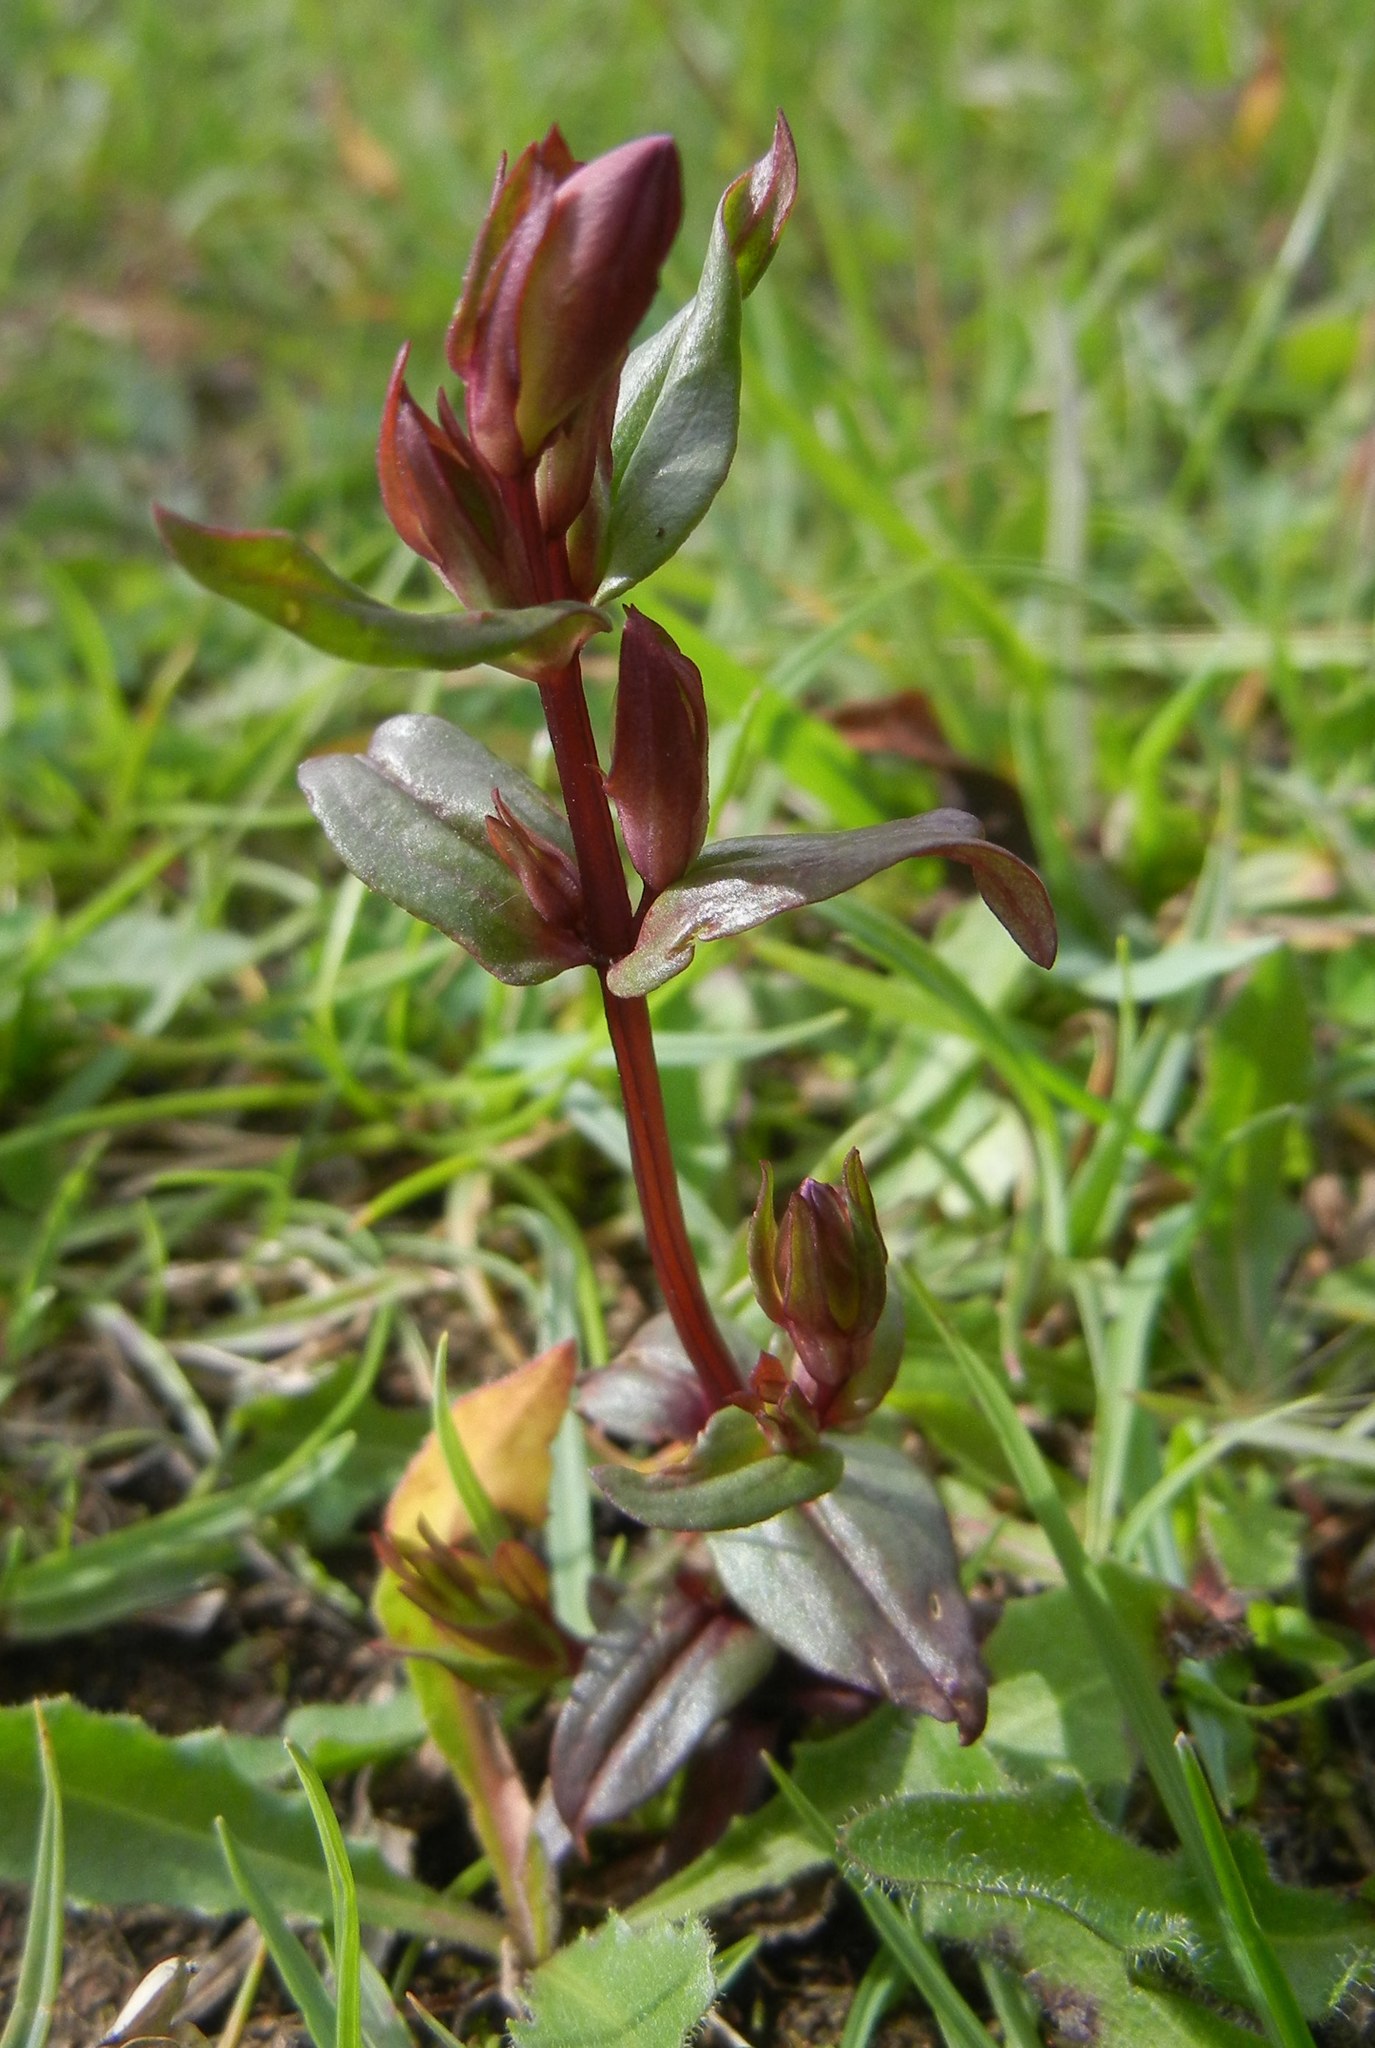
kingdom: Plantae
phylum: Tracheophyta
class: Magnoliopsida
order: Gentianales
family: Gentianaceae
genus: Gentianella
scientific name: Gentianella amarella
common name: Autumn gentian
